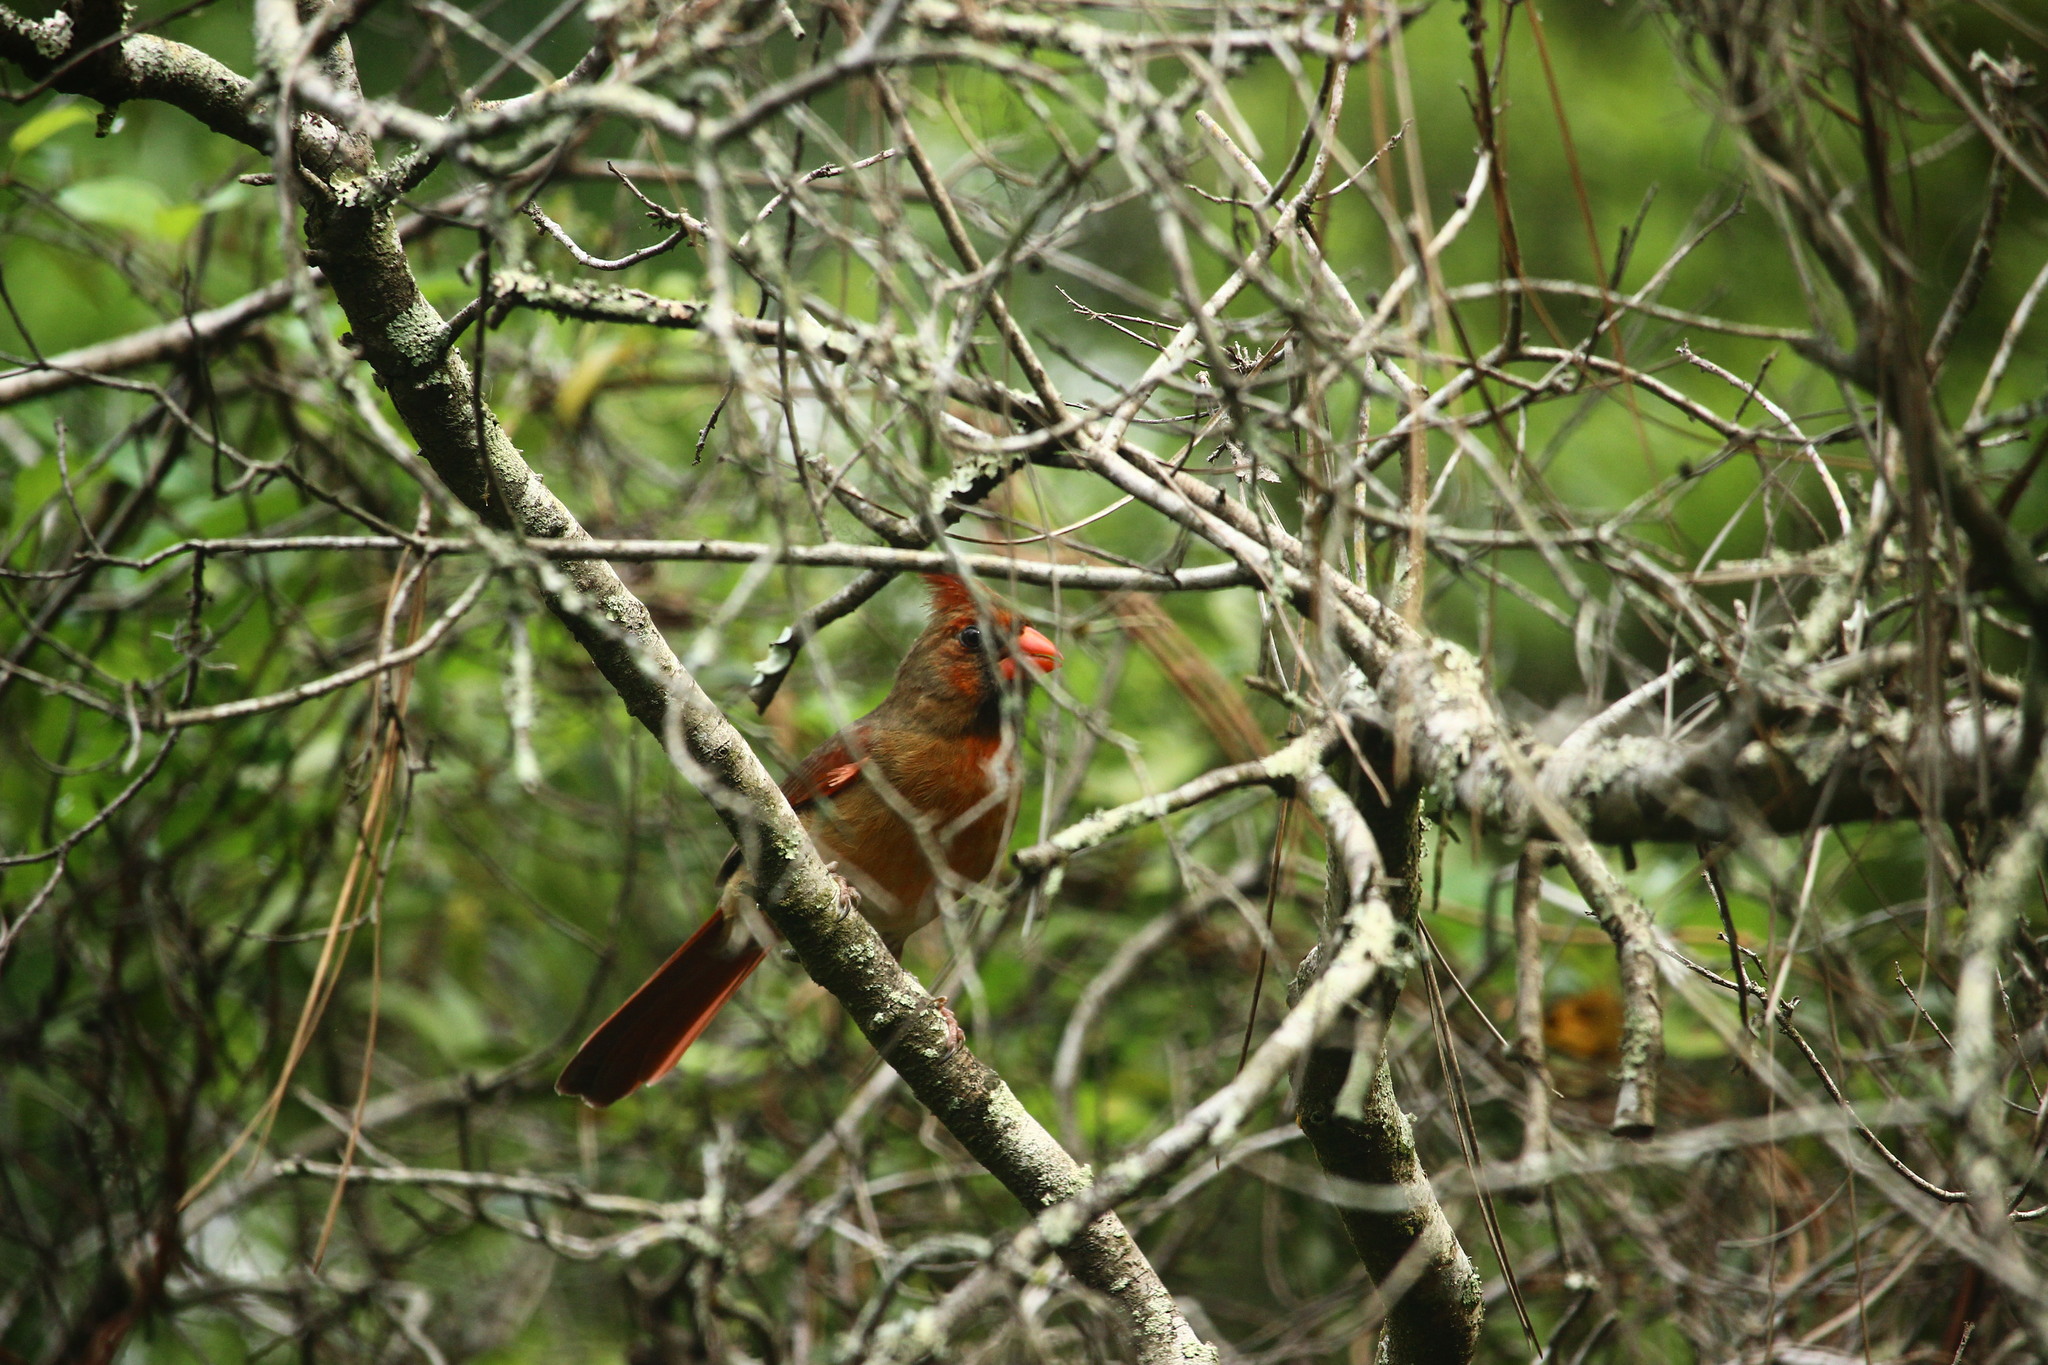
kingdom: Animalia
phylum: Chordata
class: Aves
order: Passeriformes
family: Cardinalidae
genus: Cardinalis
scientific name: Cardinalis cardinalis
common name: Northern cardinal
